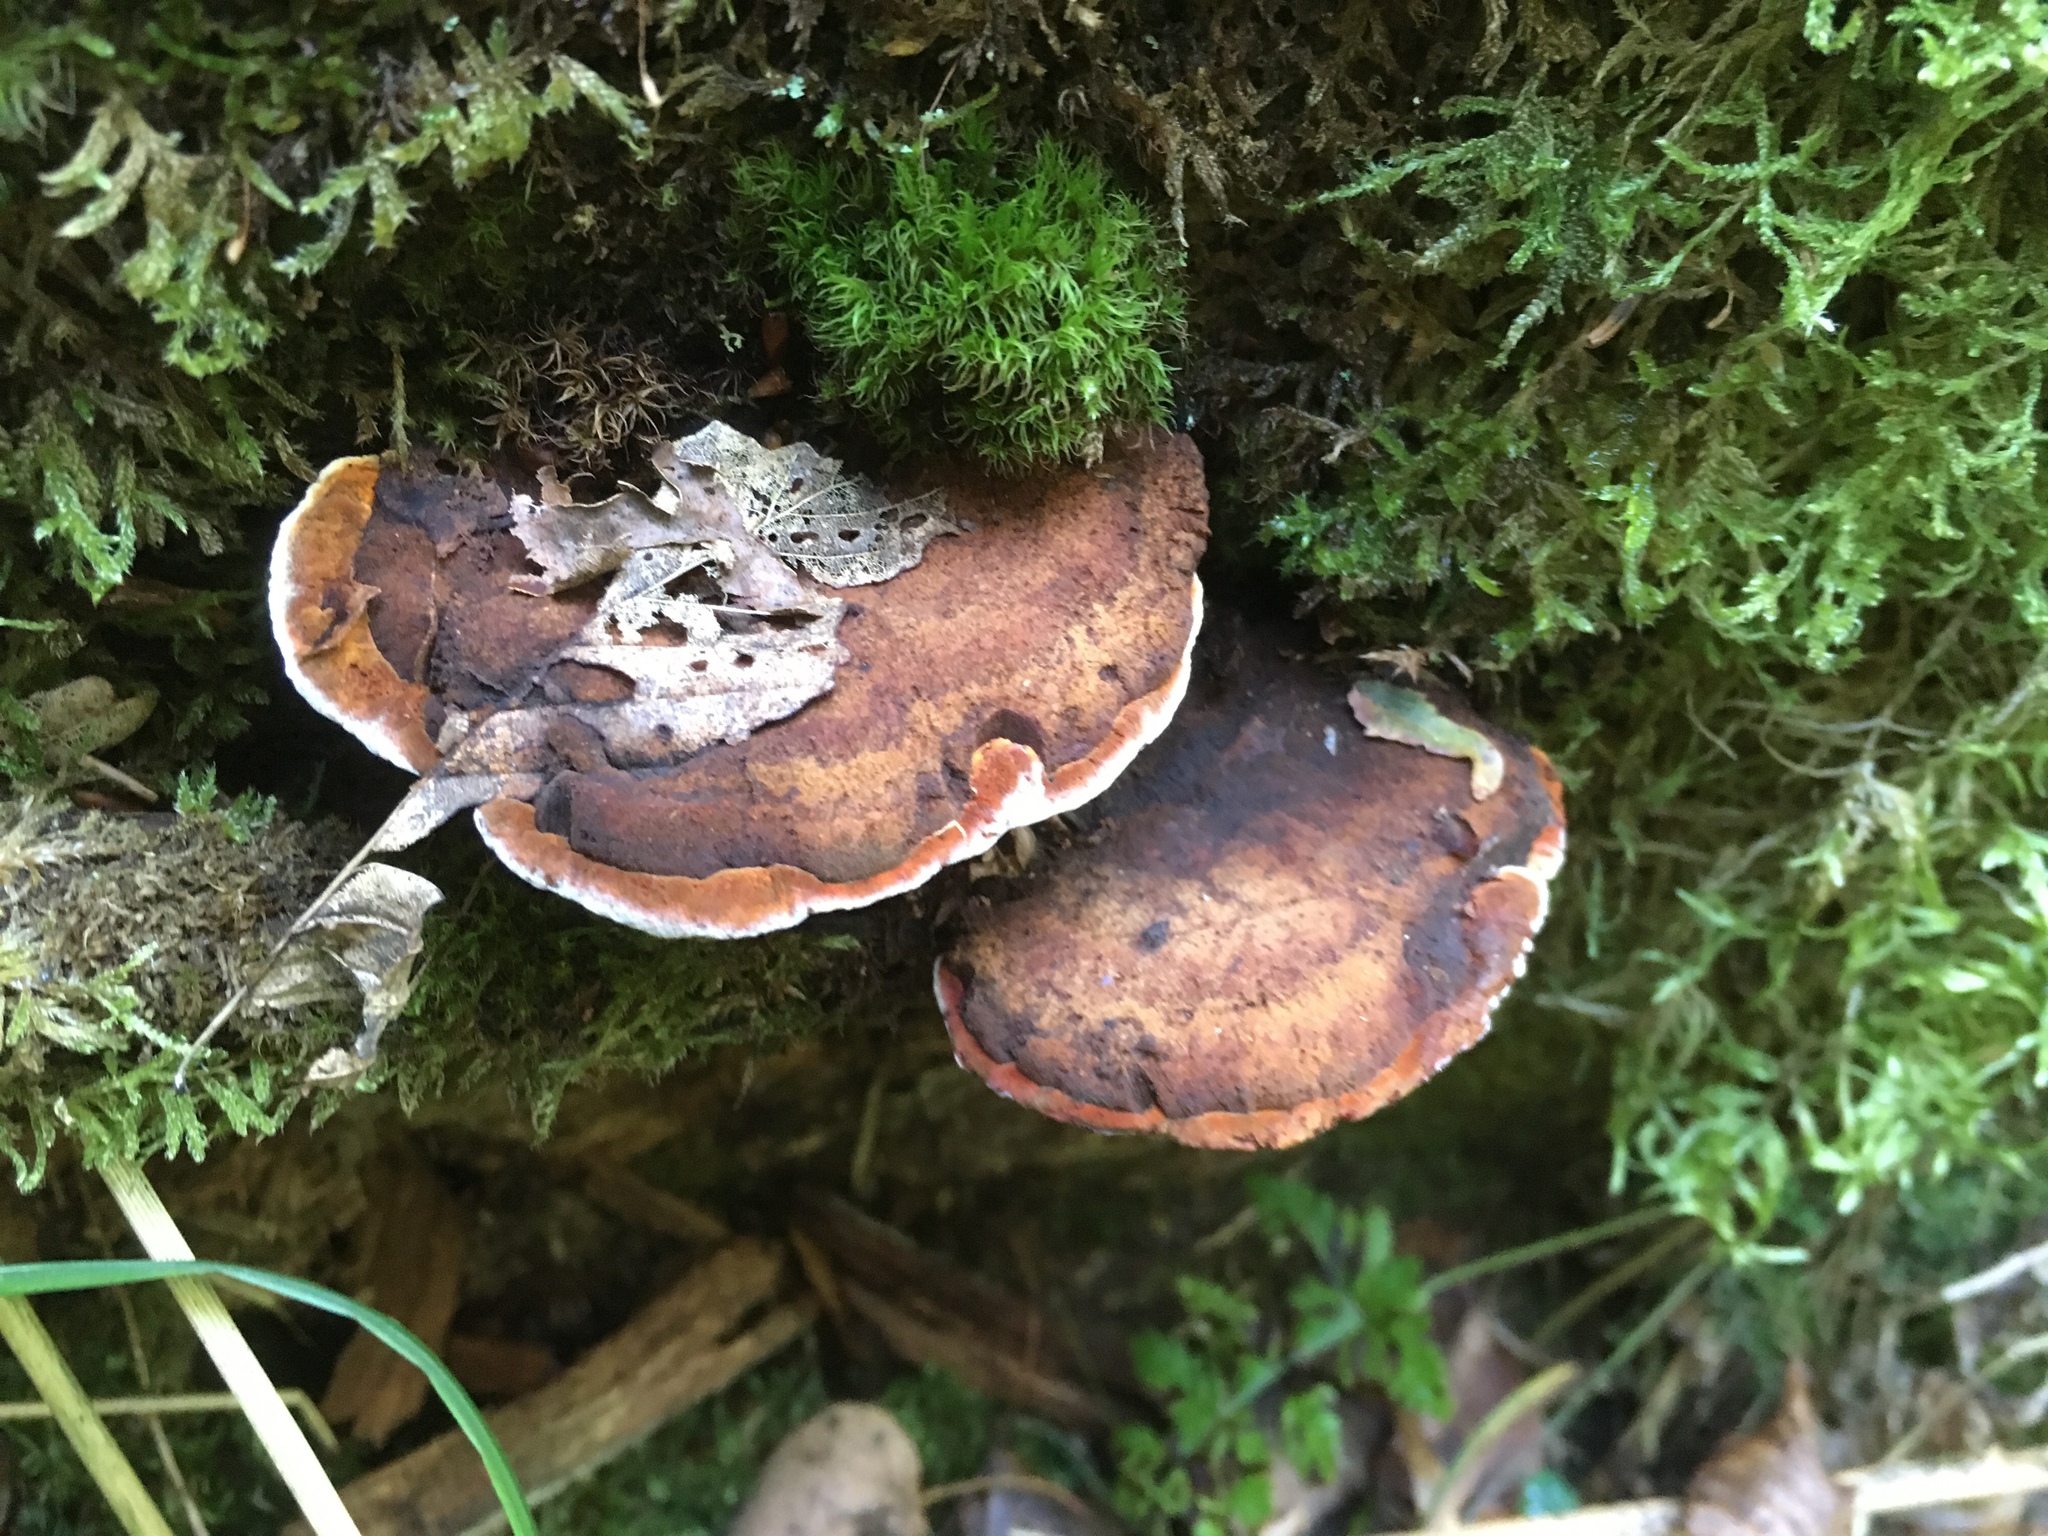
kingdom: Fungi
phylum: Basidiomycota
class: Agaricomycetes
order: Gloeophyllales
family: Gloeophyllaceae
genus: Gloeophyllum
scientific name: Gloeophyllum odoratum
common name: Anise mazegill
